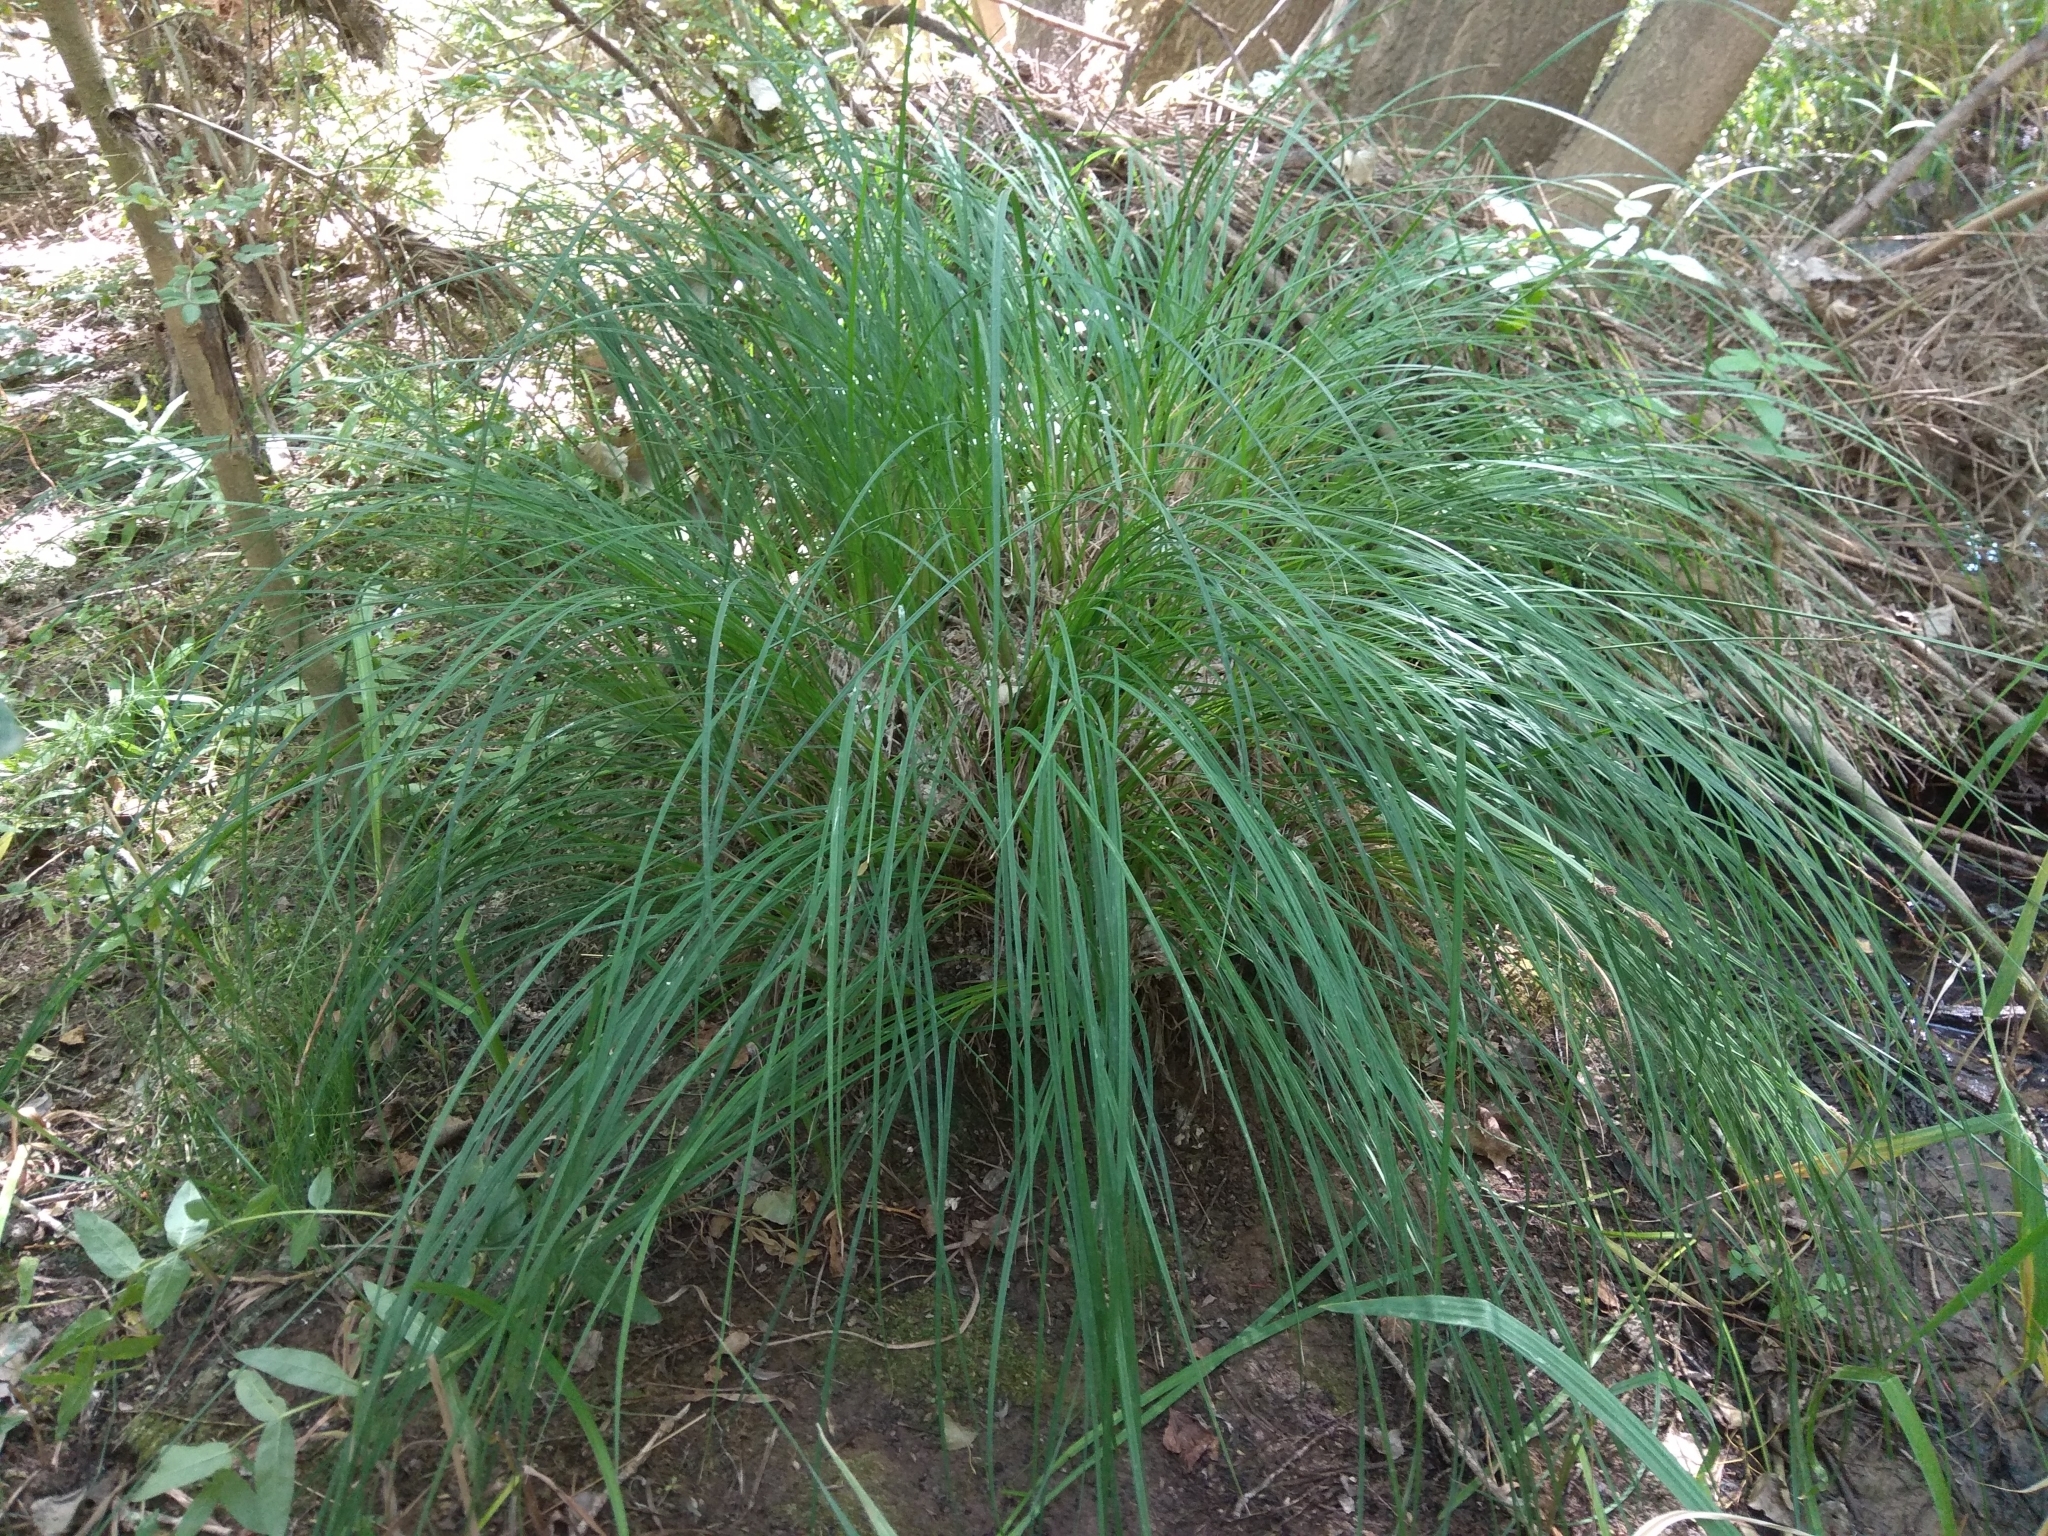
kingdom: Plantae
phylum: Tracheophyta
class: Liliopsida
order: Poales
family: Cyperaceae
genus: Carex
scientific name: Carex elata
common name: Tufted sedge
